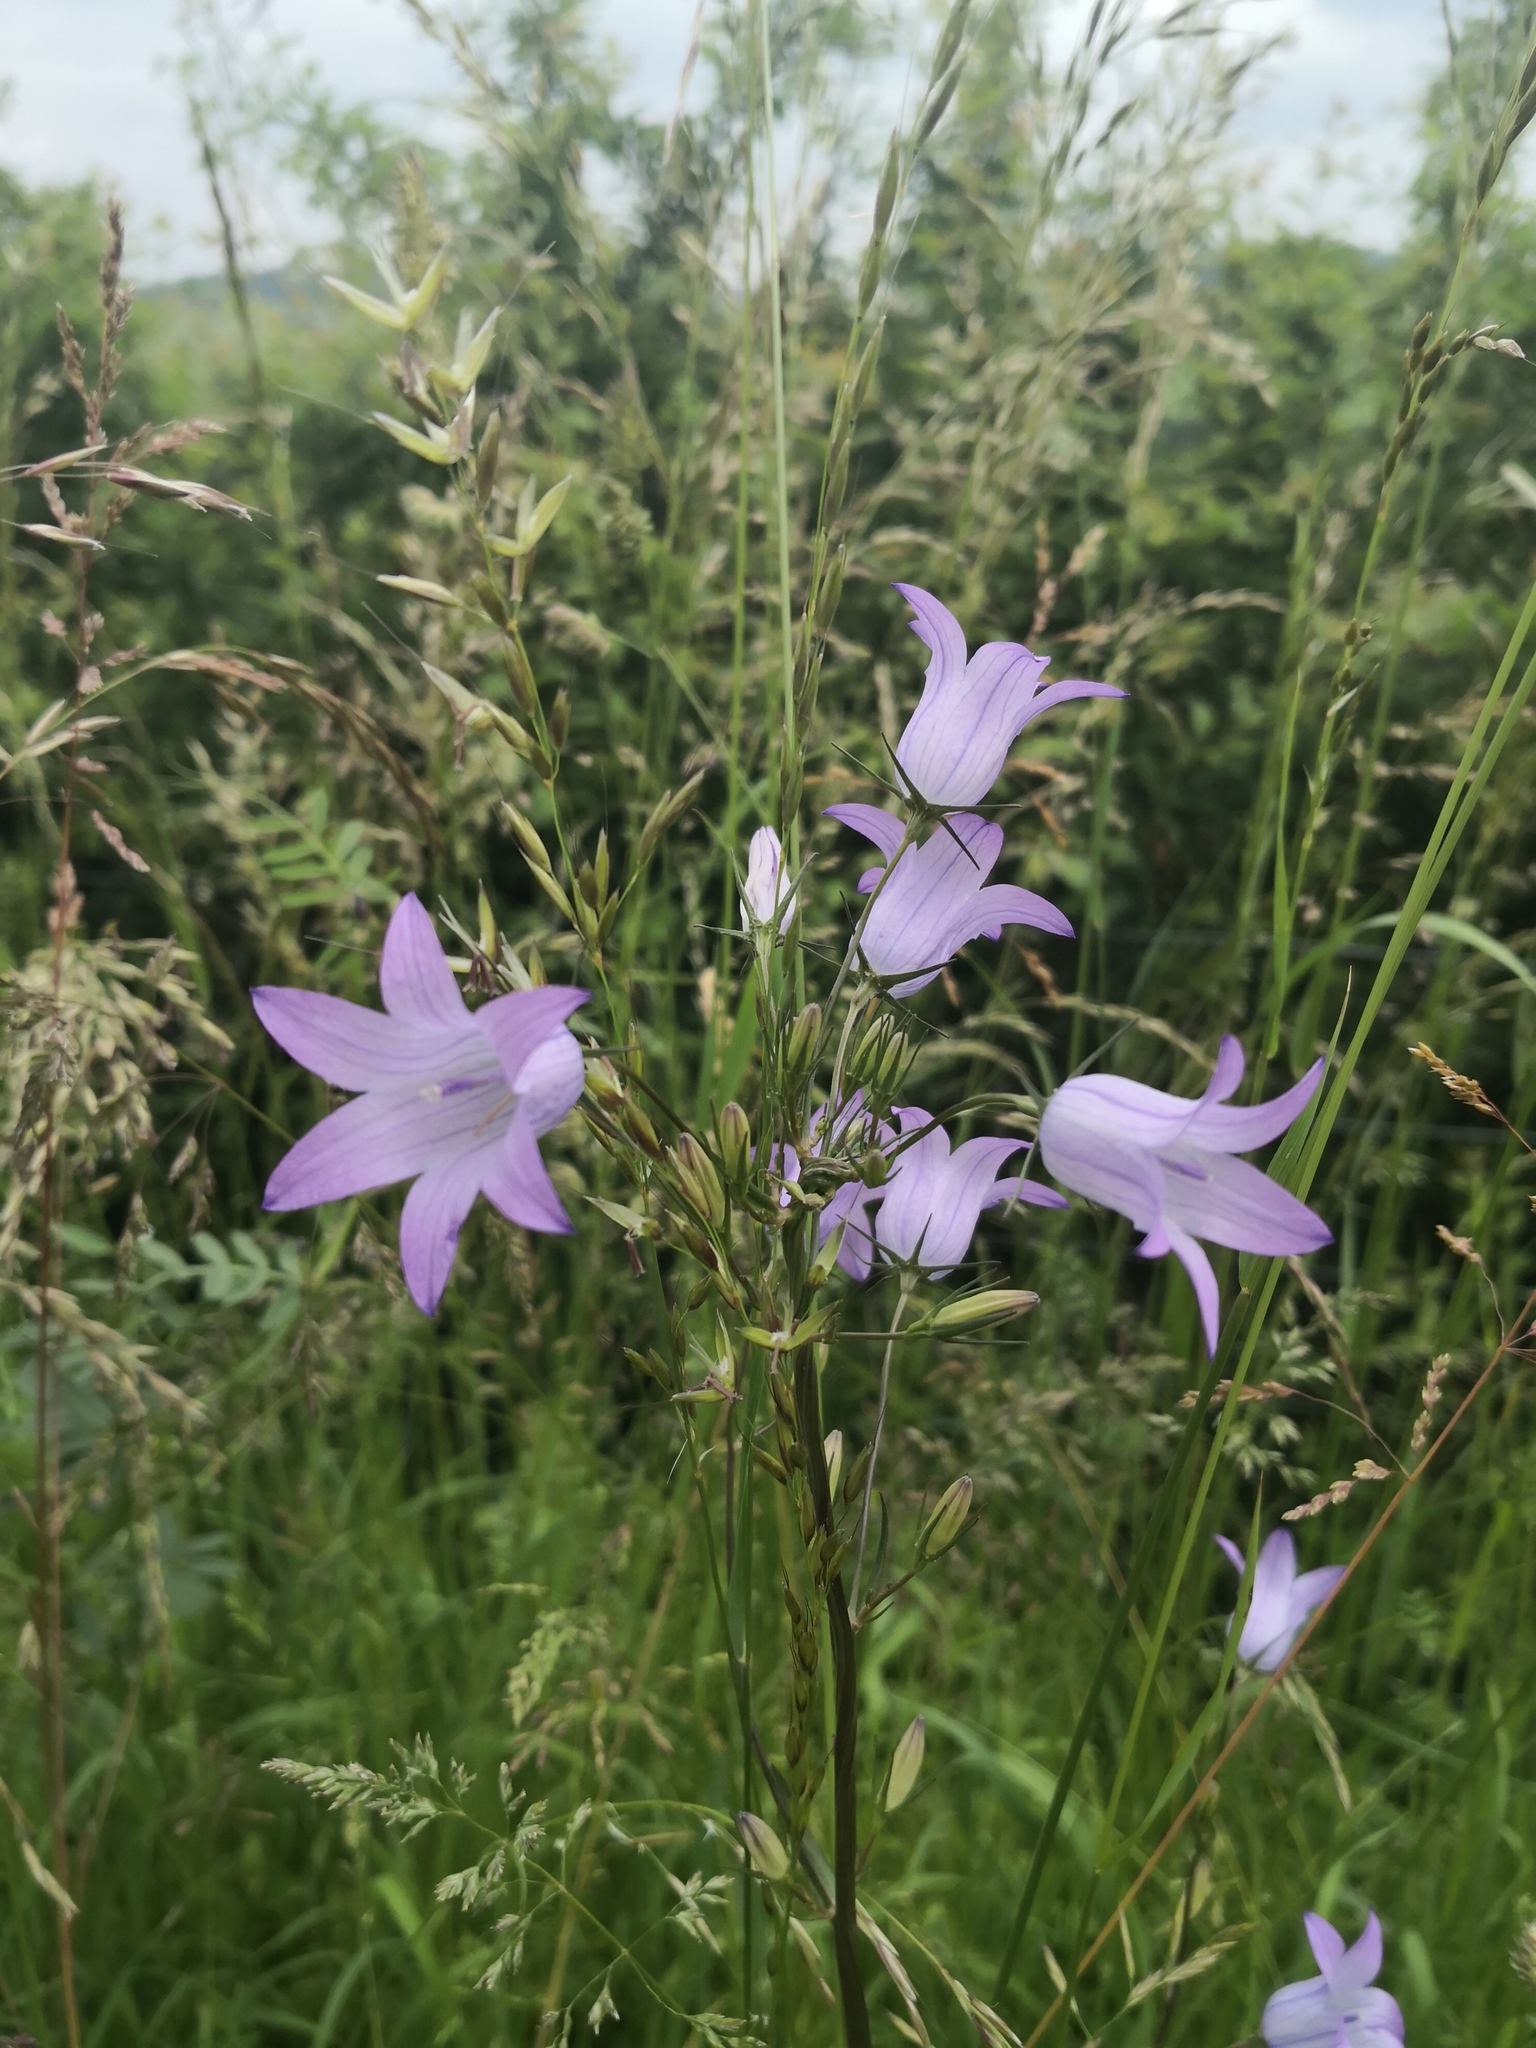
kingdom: Plantae
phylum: Tracheophyta
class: Magnoliopsida
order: Asterales
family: Campanulaceae
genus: Campanula
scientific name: Campanula rapunculus
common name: Rampion bellflower
